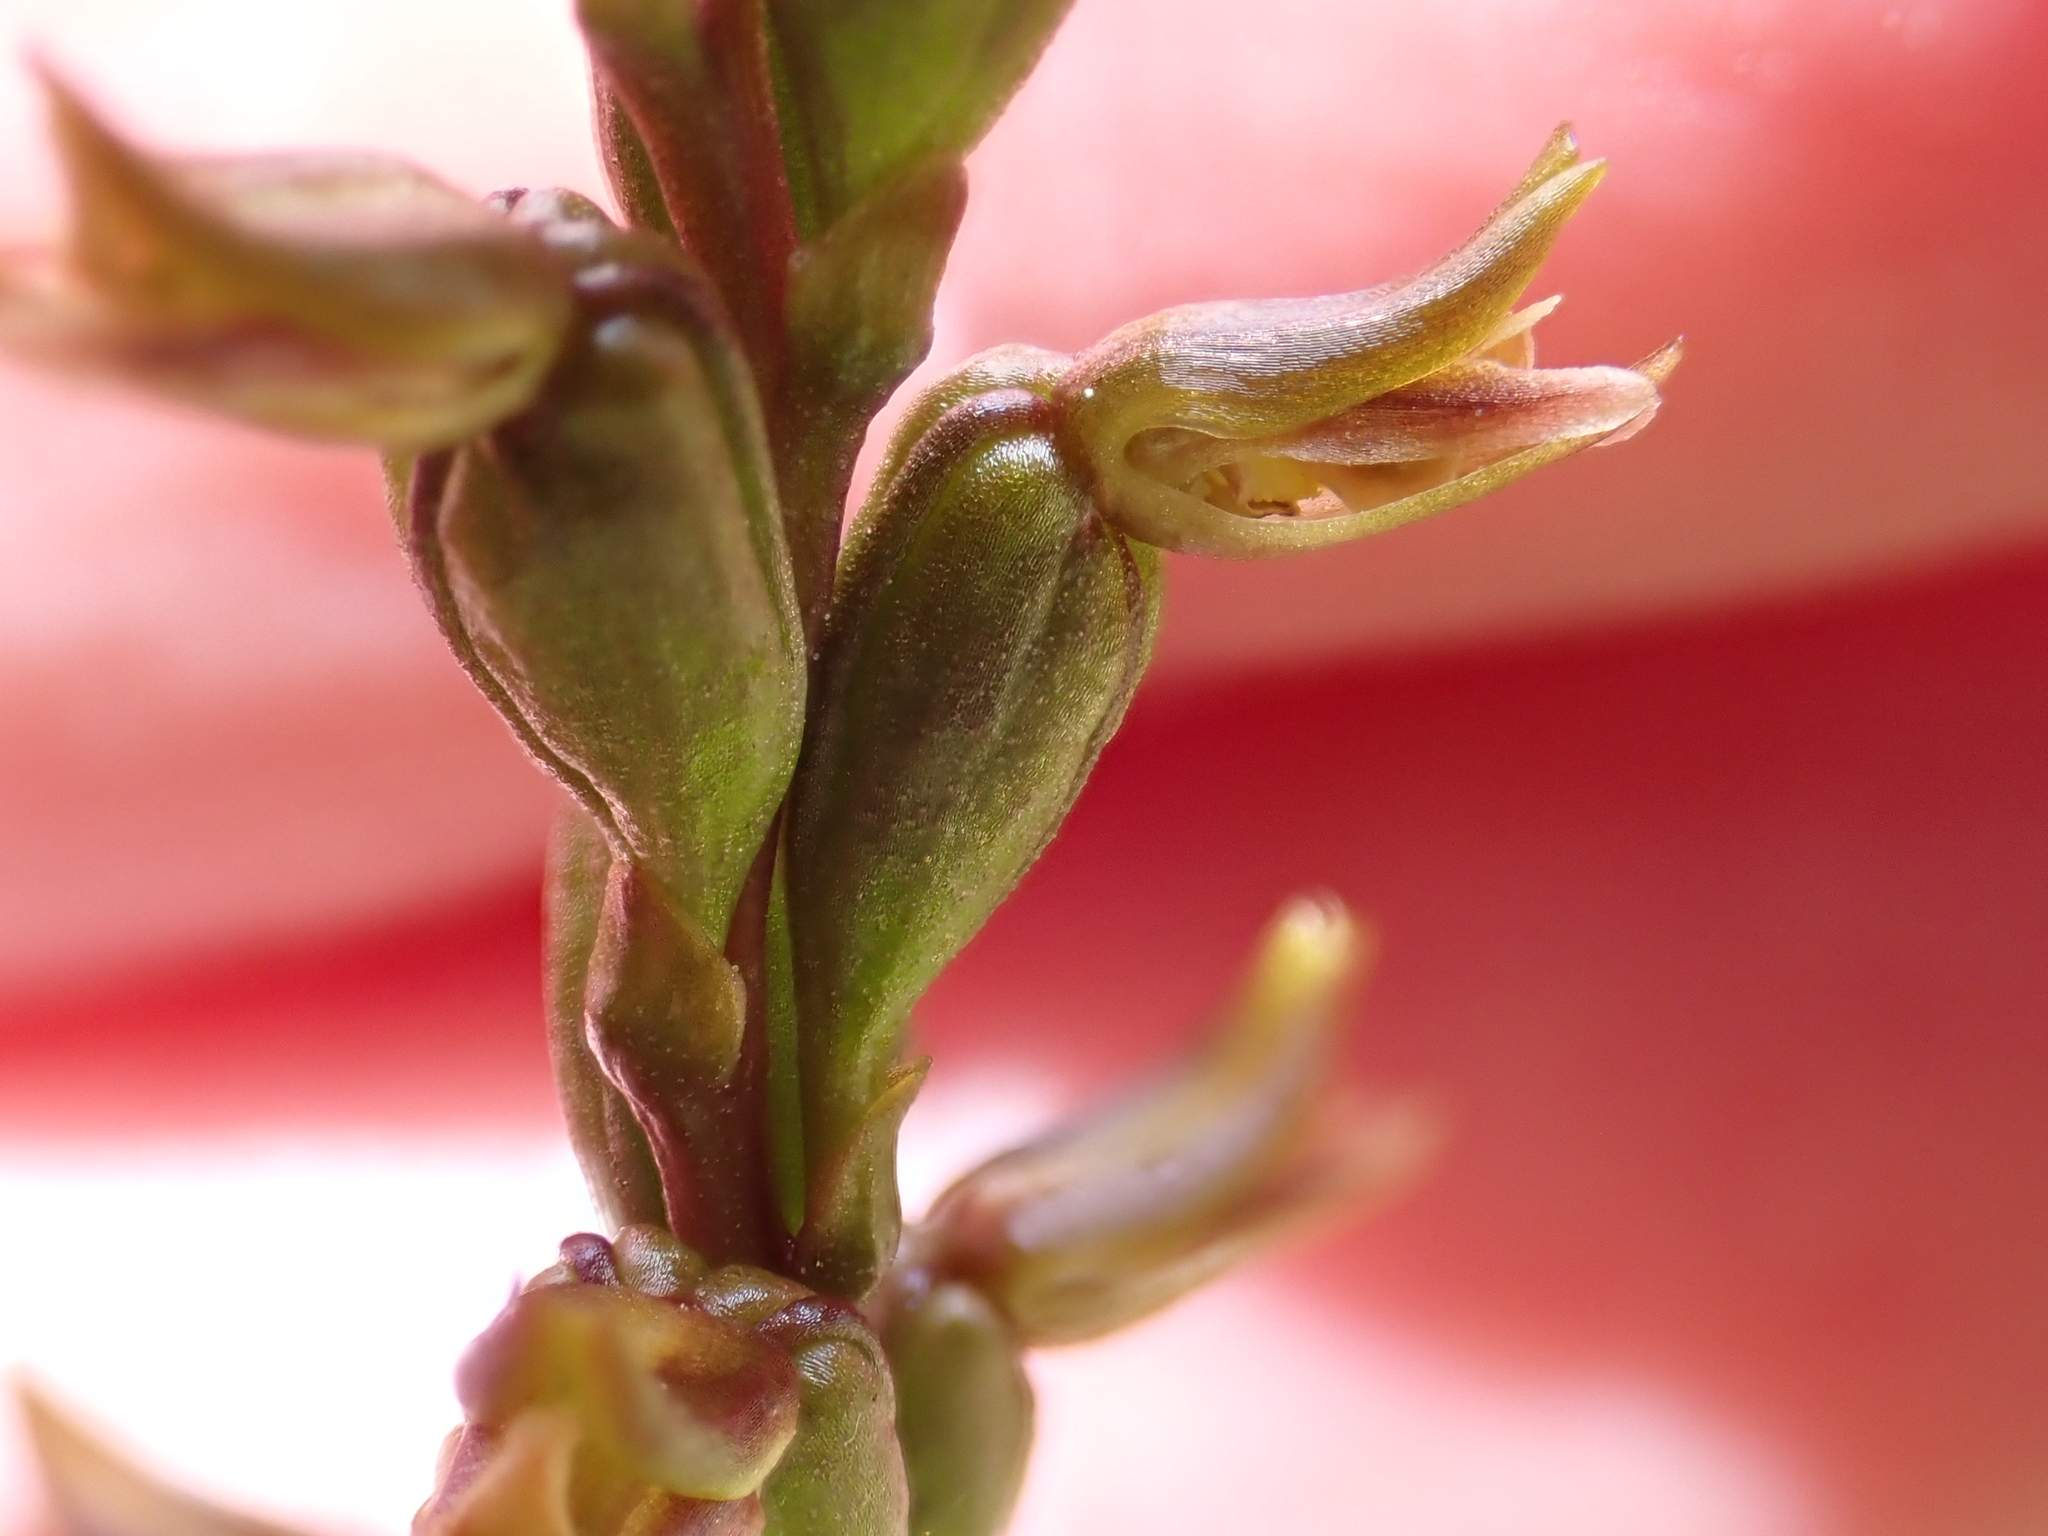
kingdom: Plantae
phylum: Tracheophyta
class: Liliopsida
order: Asparagales
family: Orchidaceae
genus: Prasophyllum
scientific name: Prasophyllum colensoi
